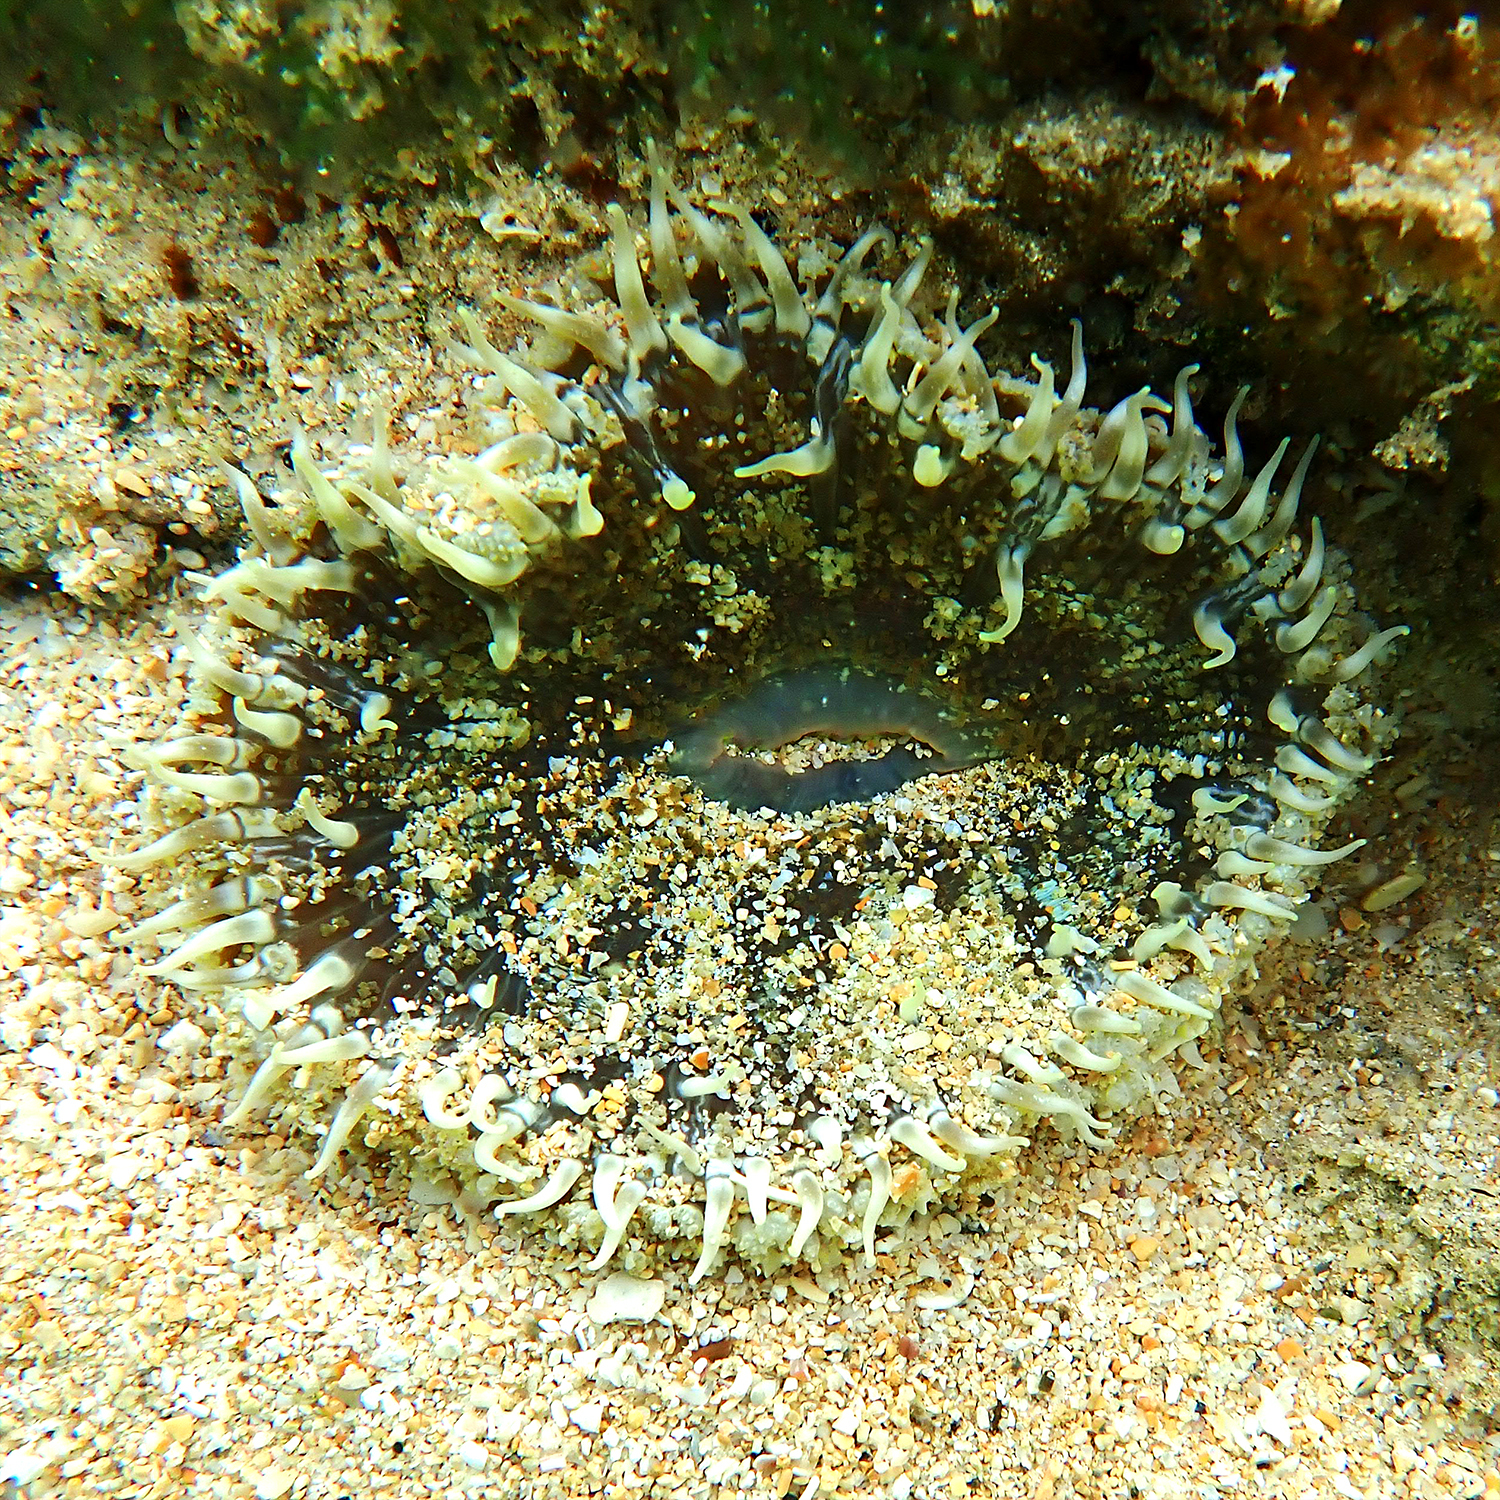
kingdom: Animalia
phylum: Cnidaria
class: Anthozoa
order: Actiniaria
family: Heteranthidae
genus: Heteranthus
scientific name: Heteranthus verruculatus
